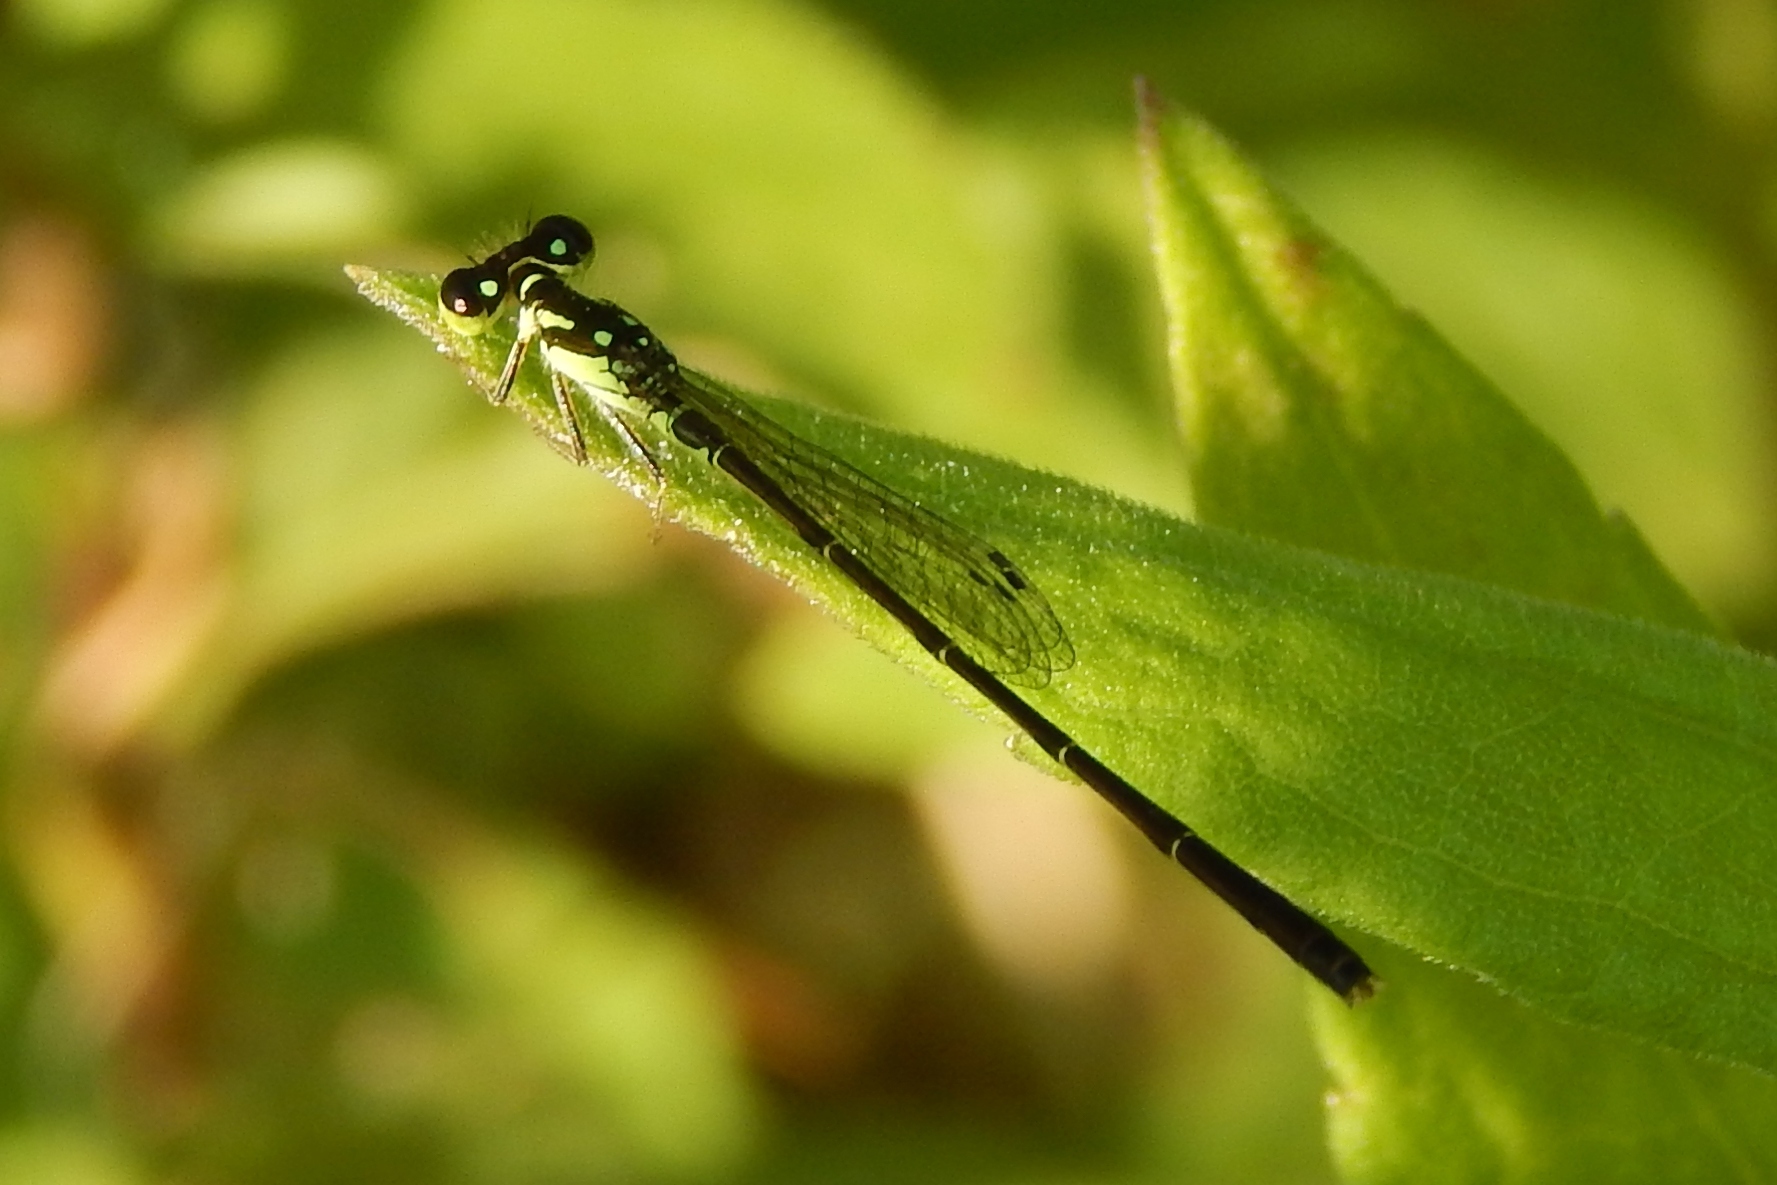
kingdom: Animalia
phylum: Arthropoda
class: Insecta
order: Odonata
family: Coenagrionidae
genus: Ischnura
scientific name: Ischnura posita
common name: Fragile forktail
